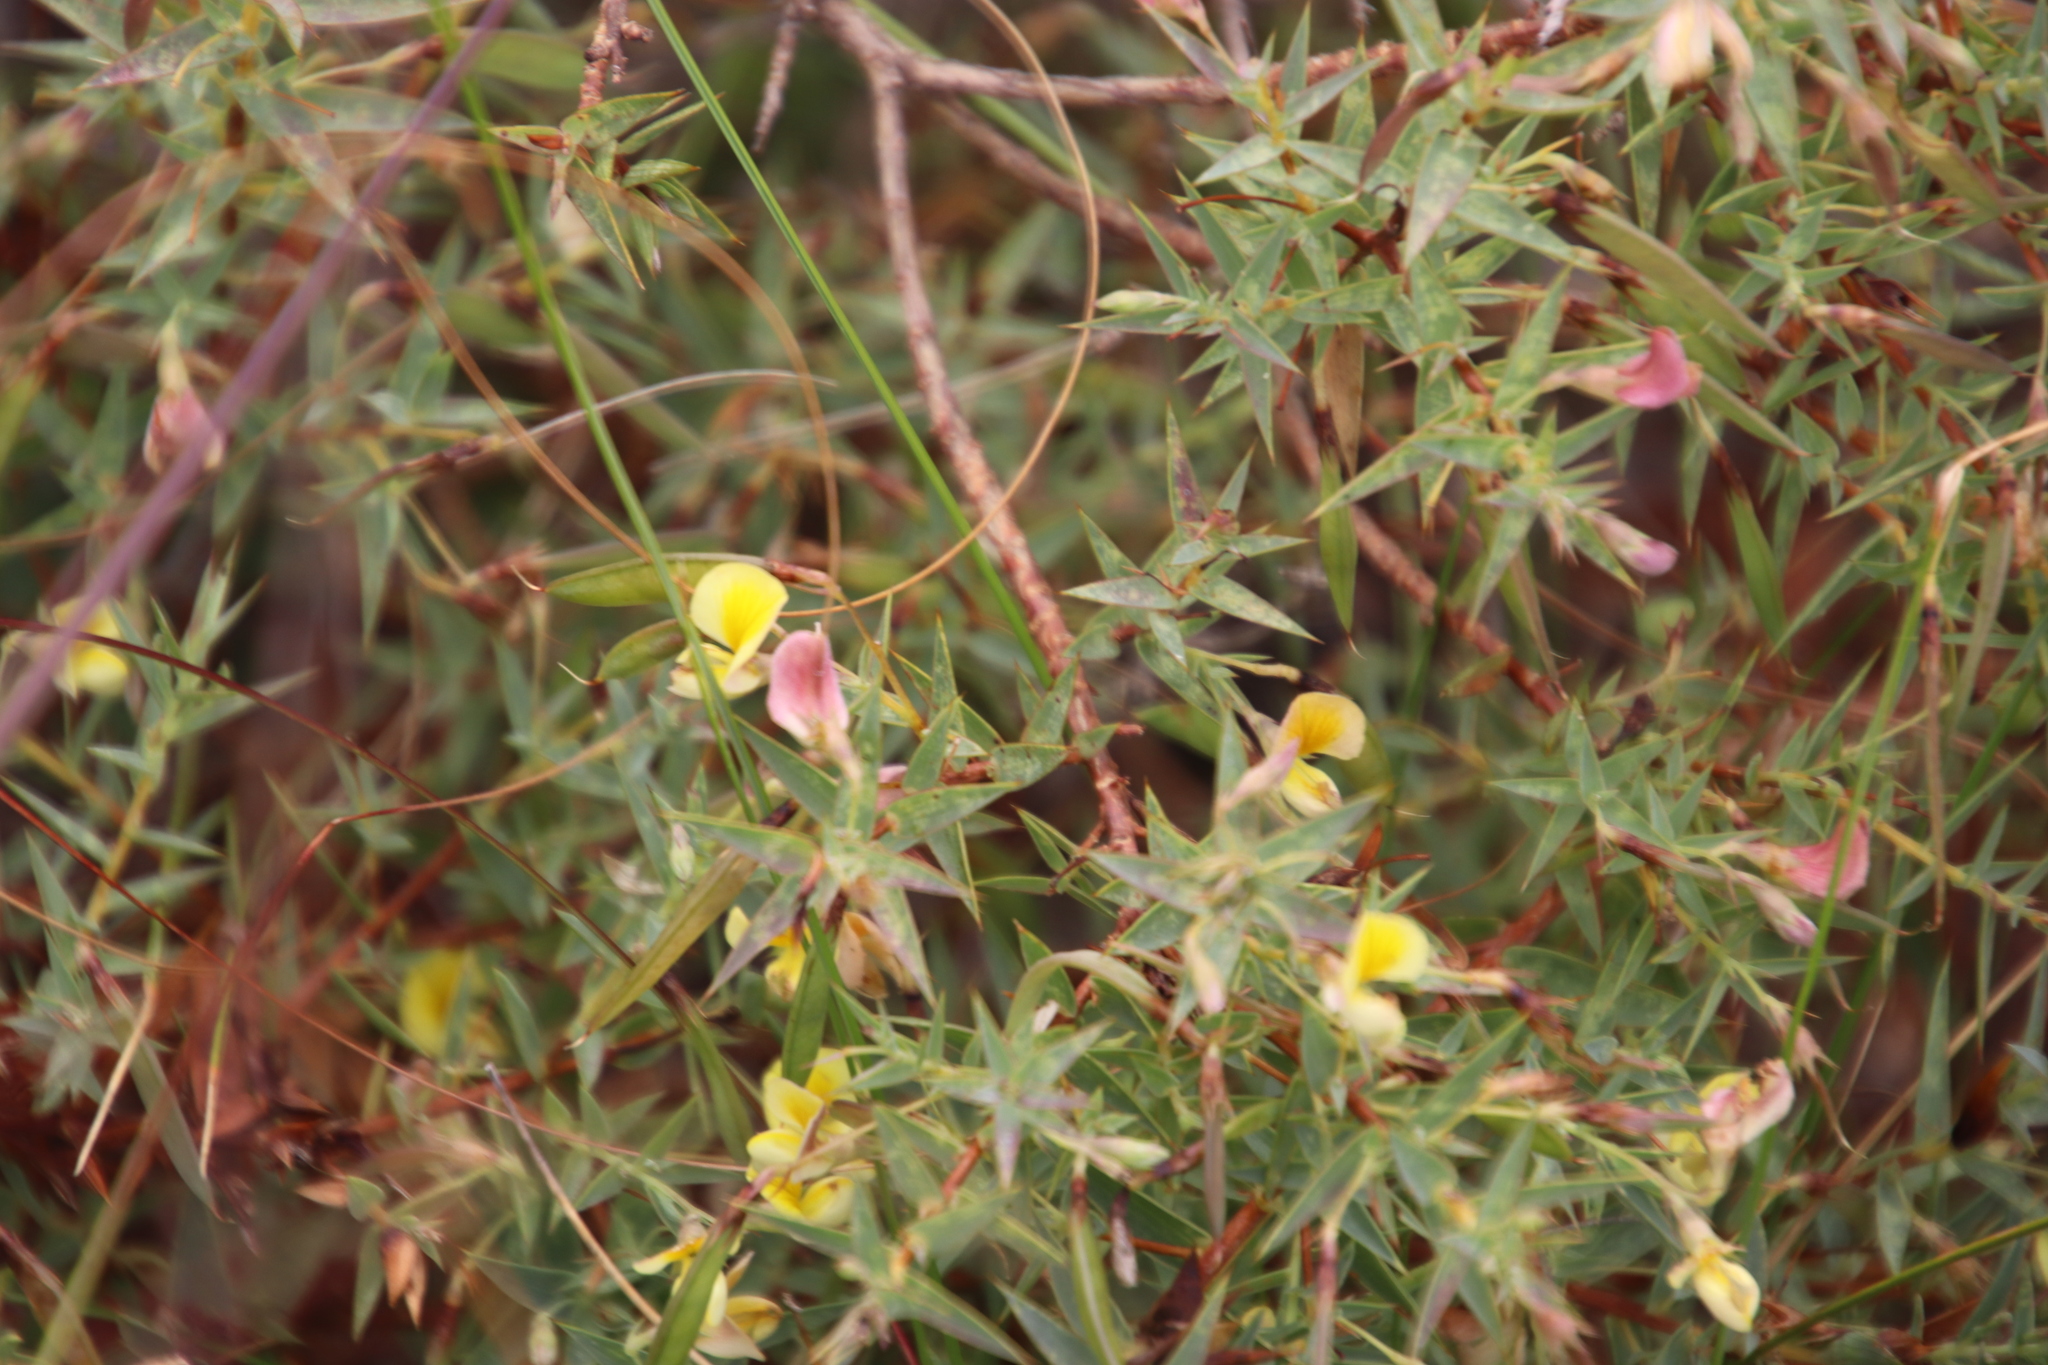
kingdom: Plantae
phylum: Tracheophyta
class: Magnoliopsida
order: Fabales
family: Fabaceae
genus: Aspalathus
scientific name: Aspalathus alpestris
